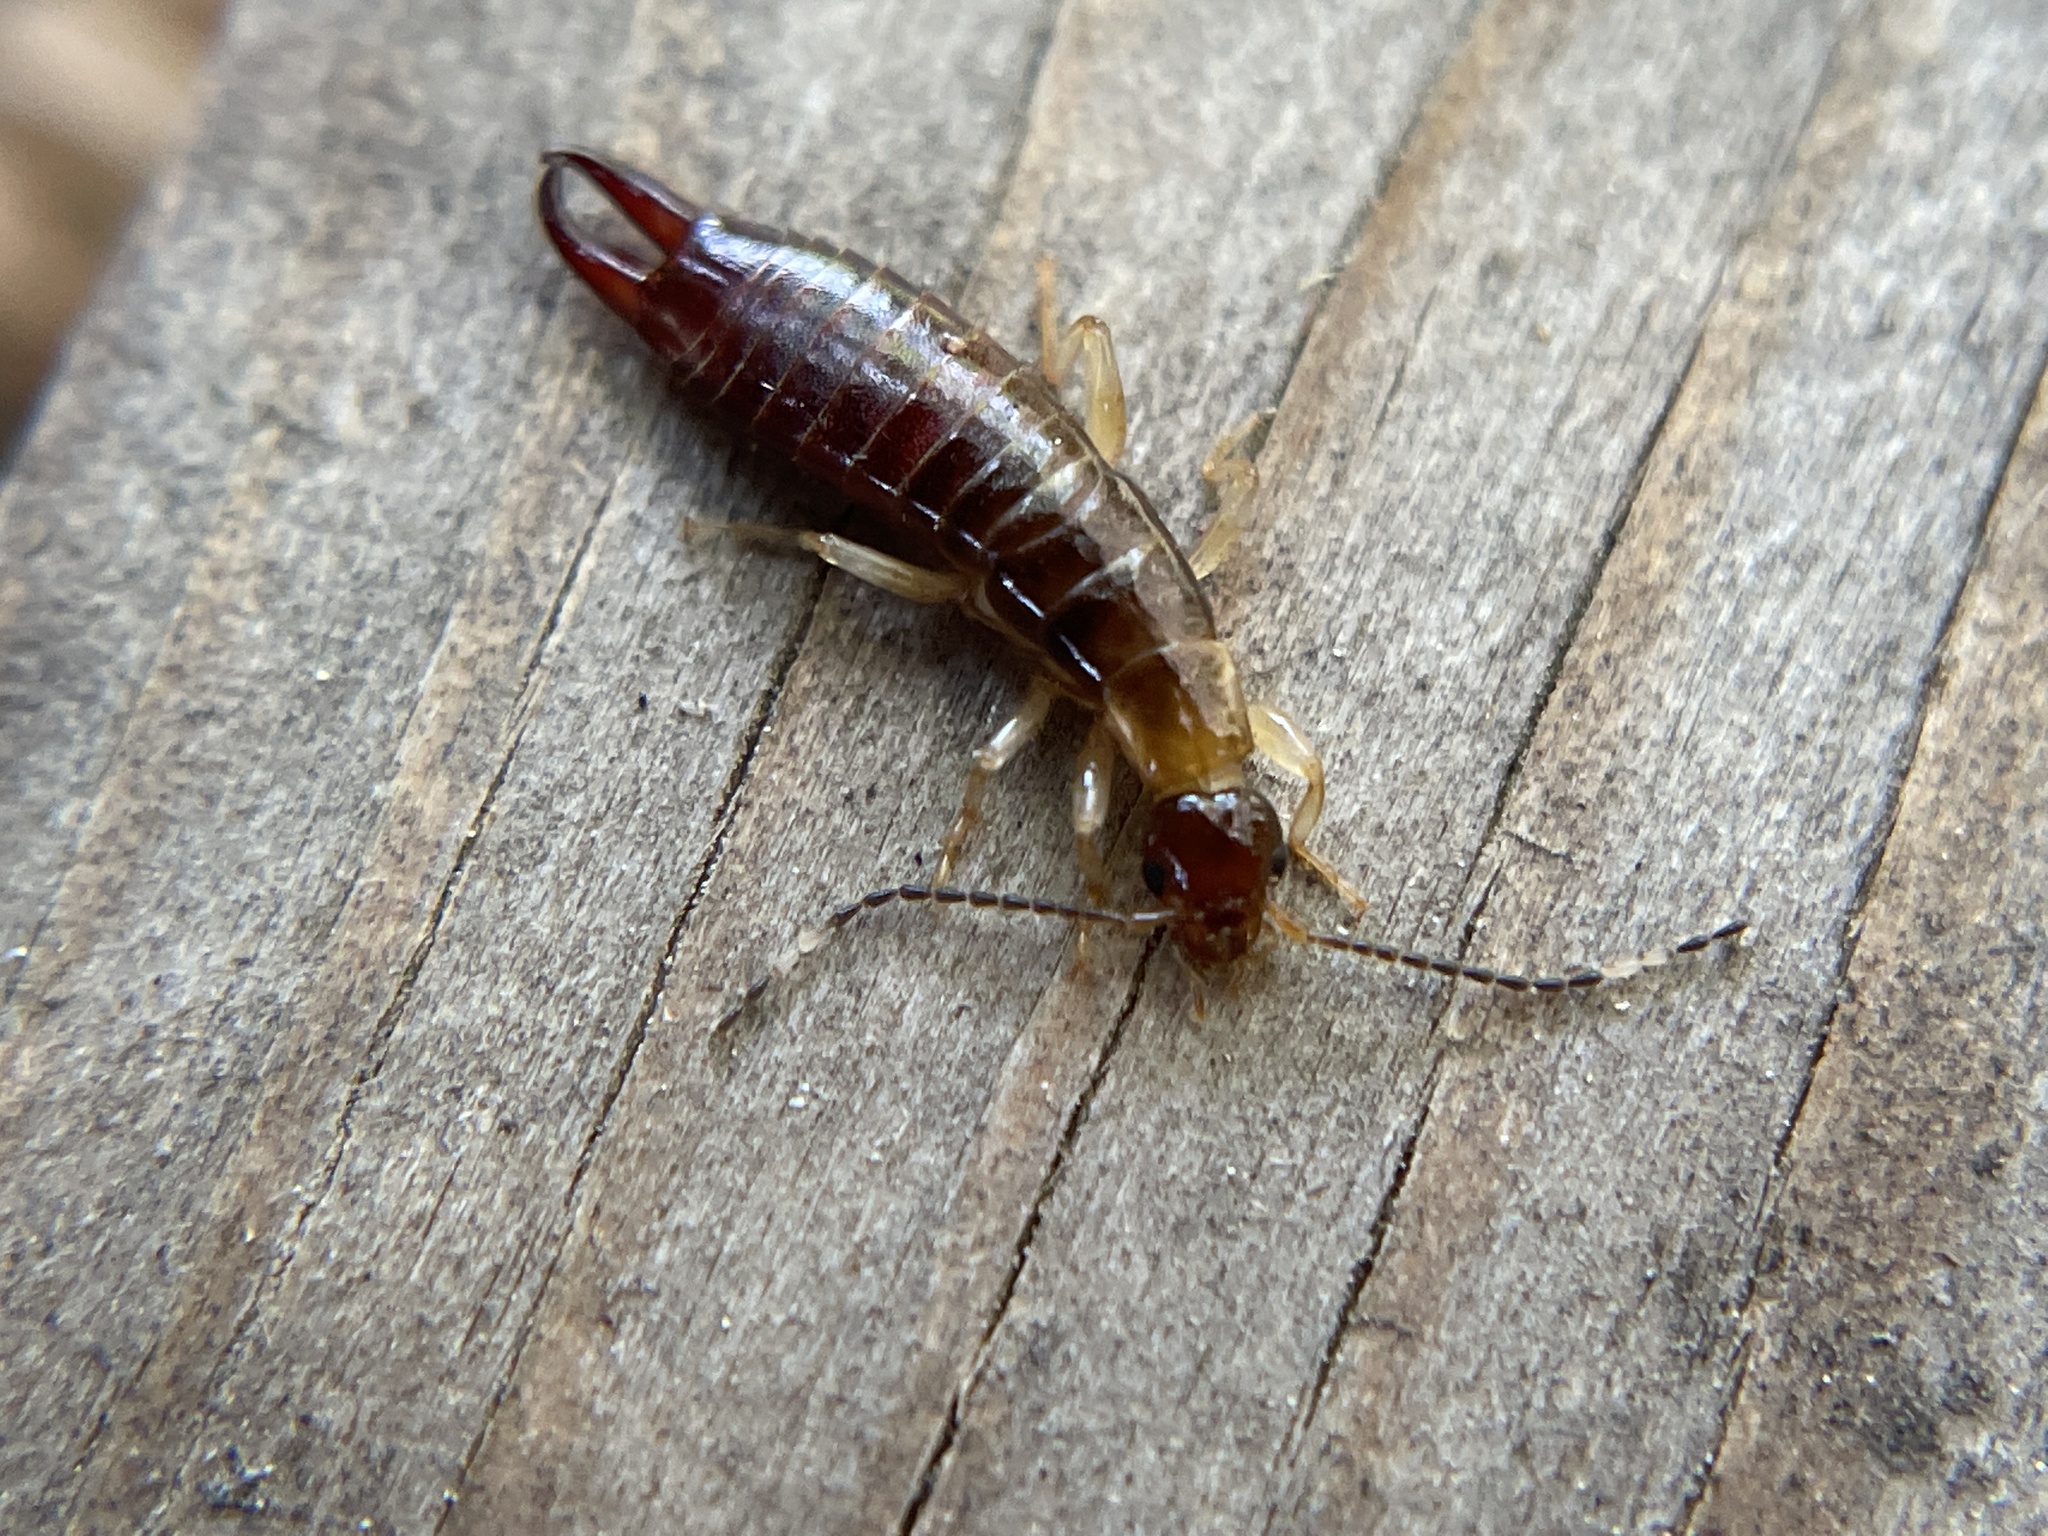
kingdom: Animalia
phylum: Arthropoda
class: Insecta
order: Dermaptera
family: Anisolabididae
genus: Euborellia
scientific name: Euborellia annulipes
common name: Ringlegged earwig
